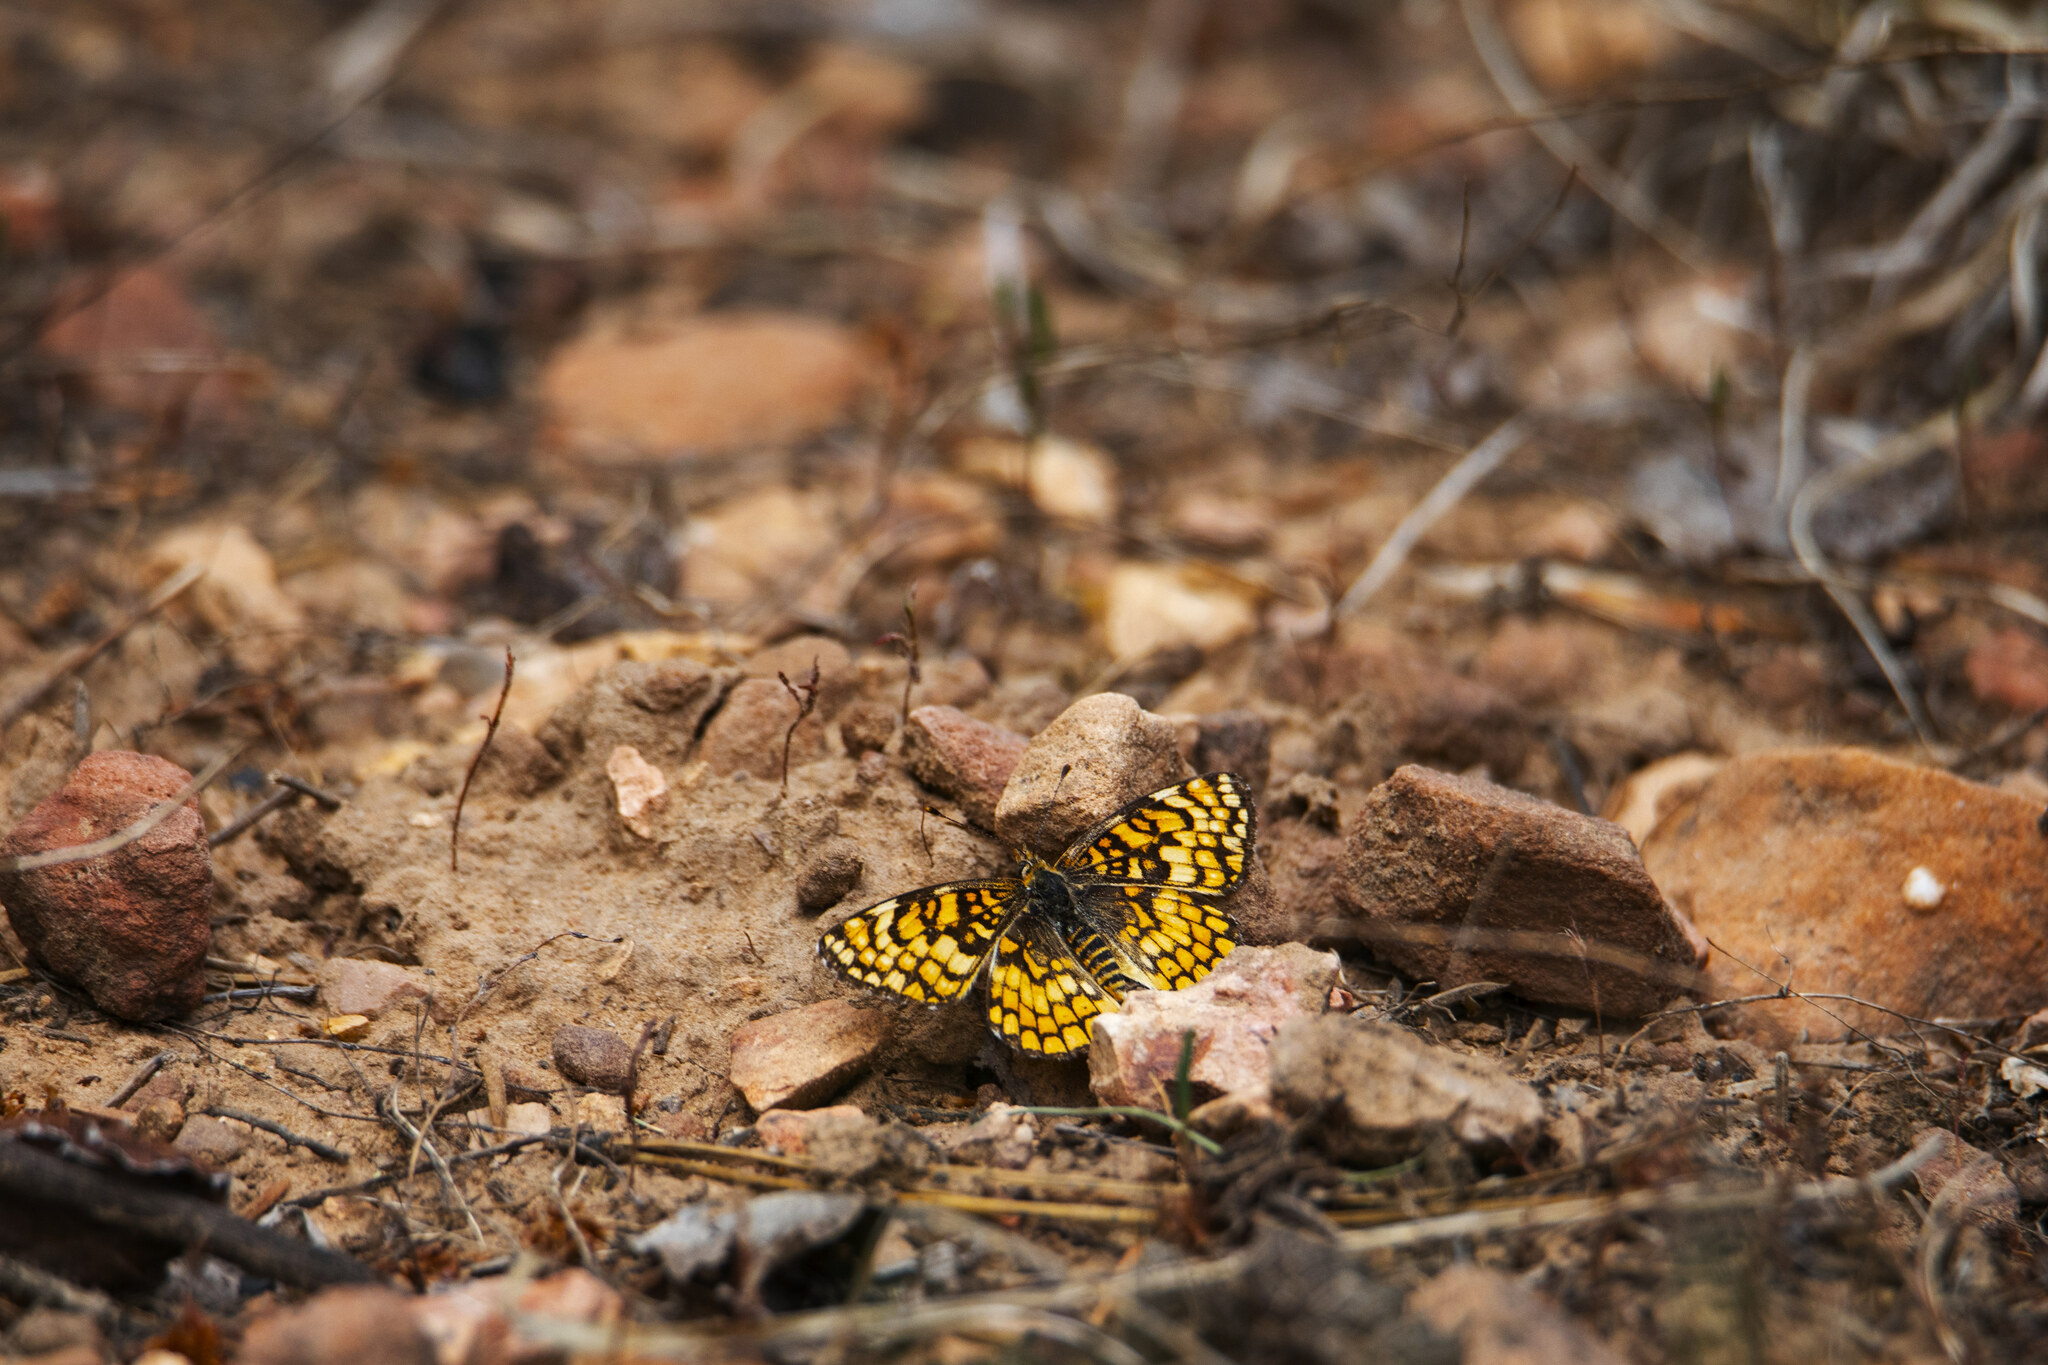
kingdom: Animalia
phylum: Arthropoda
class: Insecta
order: Lepidoptera
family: Nymphalidae
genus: Poladryas
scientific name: Poladryas minuta
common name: Dotted checkerspot
